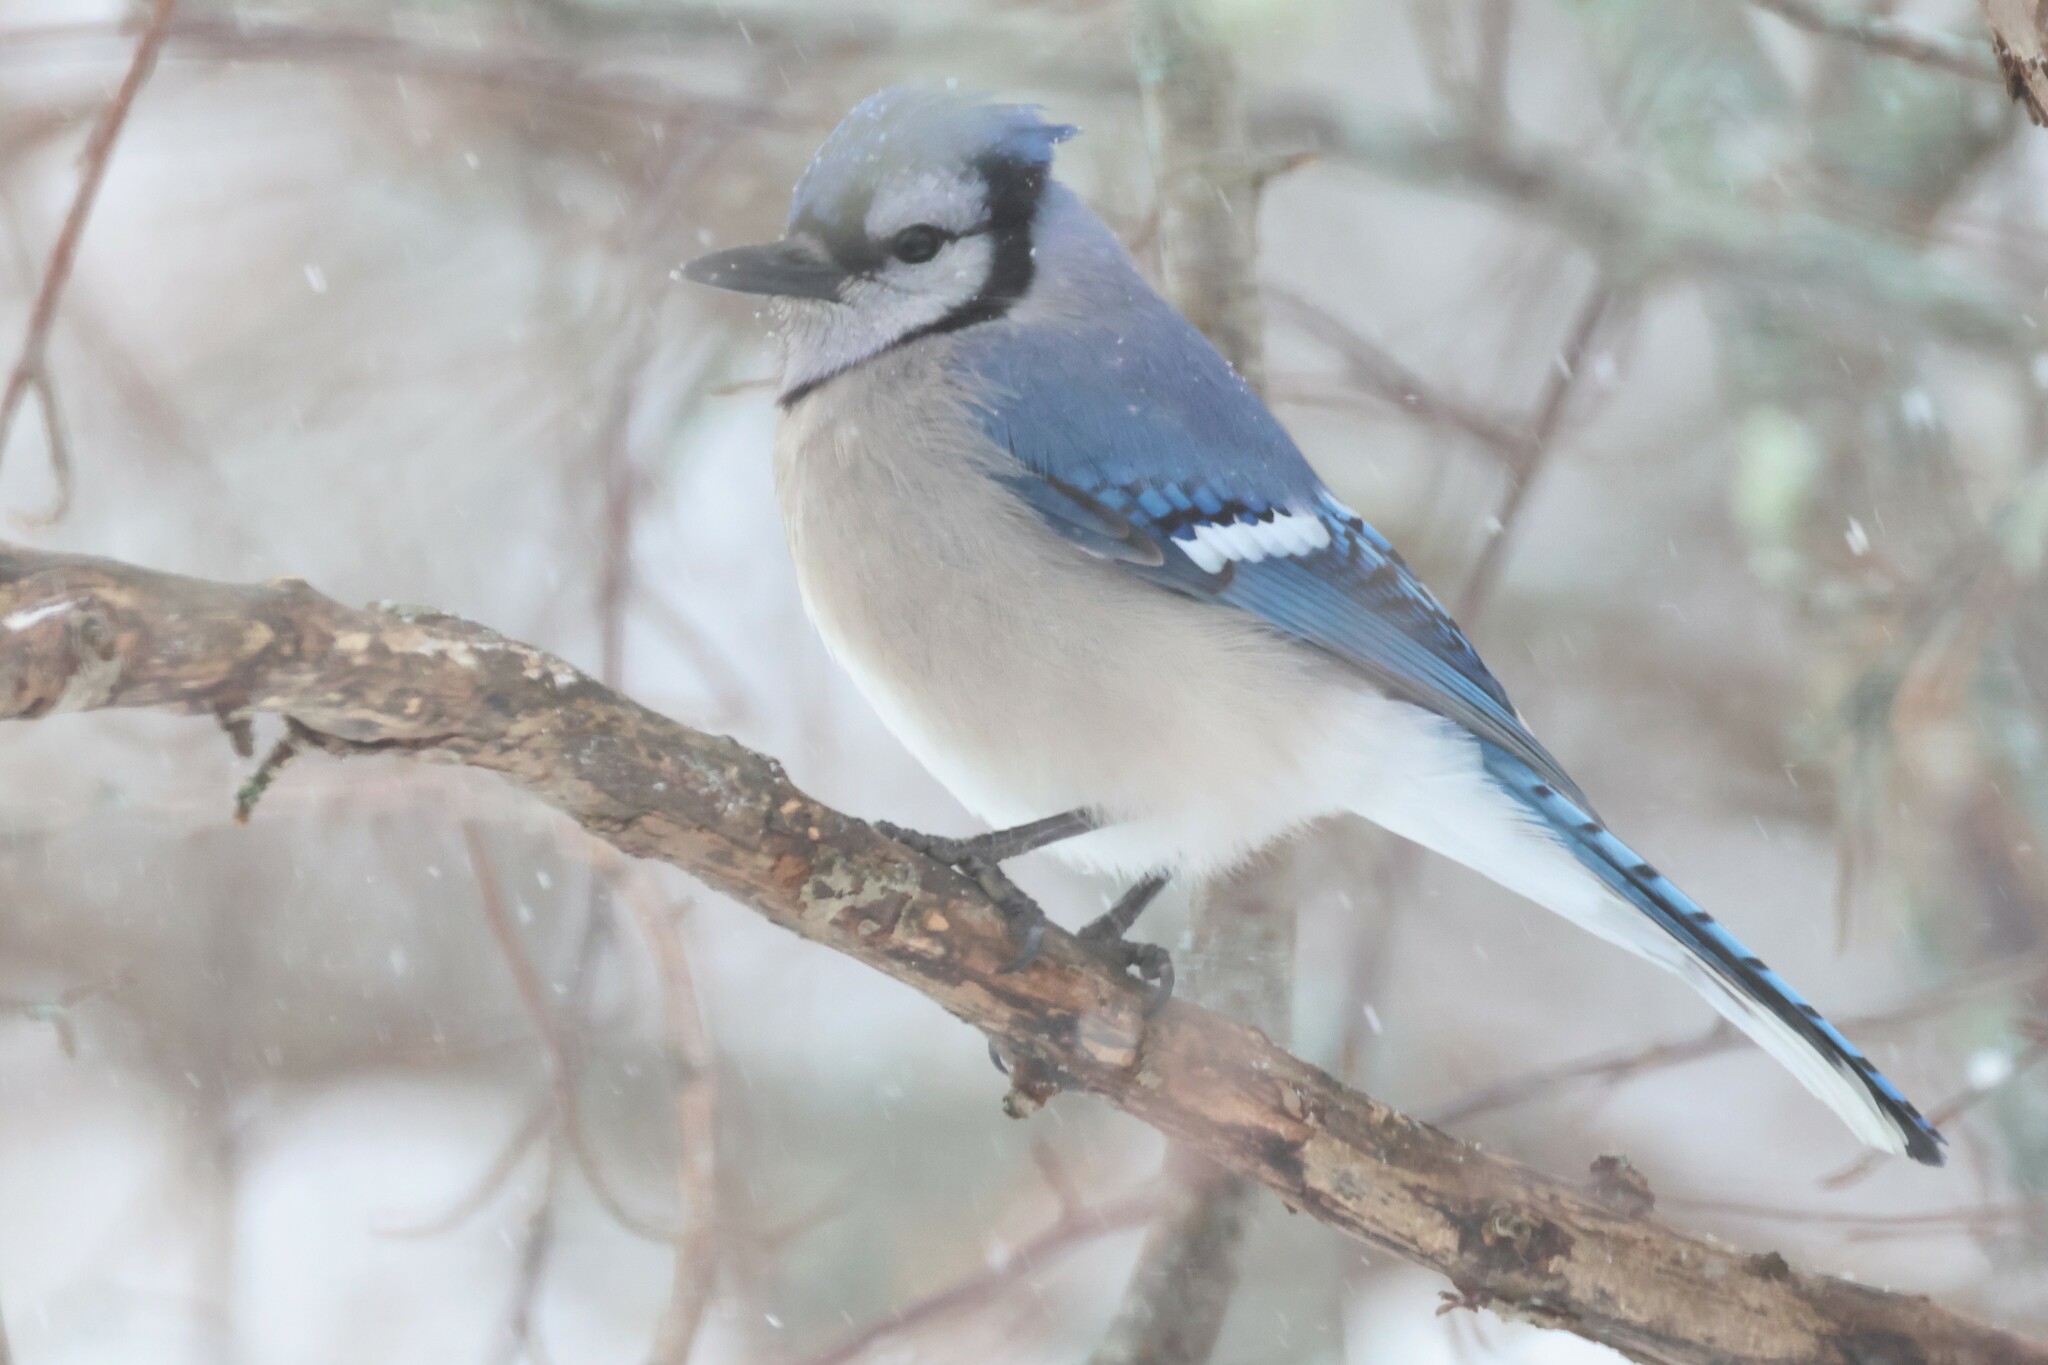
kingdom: Animalia
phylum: Chordata
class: Aves
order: Passeriformes
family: Corvidae
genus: Cyanocitta
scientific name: Cyanocitta cristata
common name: Blue jay
